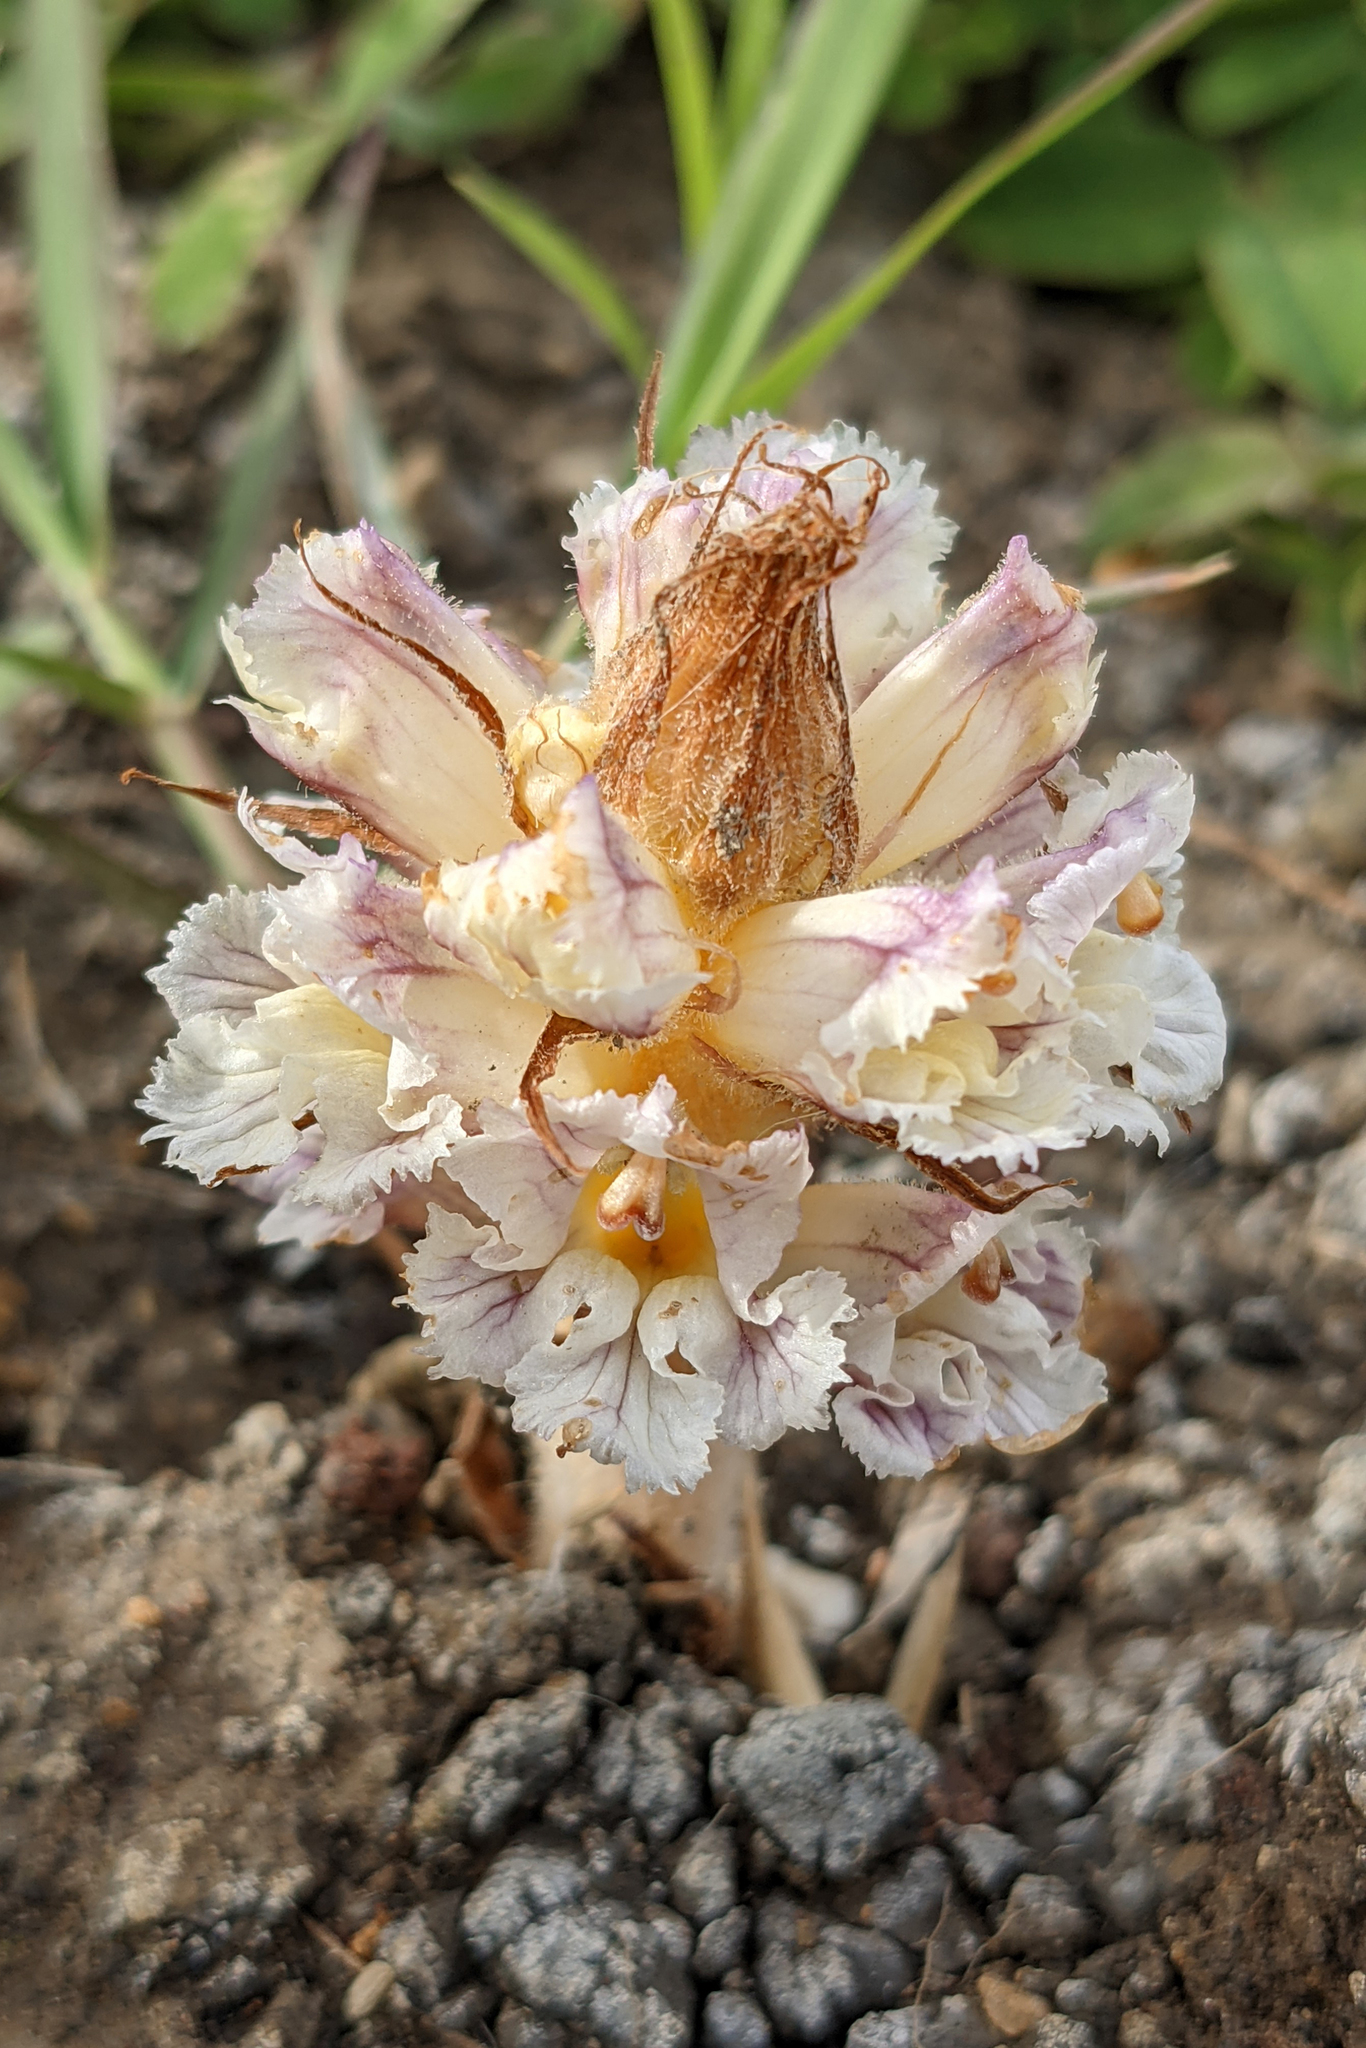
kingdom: Plantae
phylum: Tracheophyta
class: Magnoliopsida
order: Lamiales
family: Orobanchaceae
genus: Orobanche
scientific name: Orobanche crenata
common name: Bean broomrape
